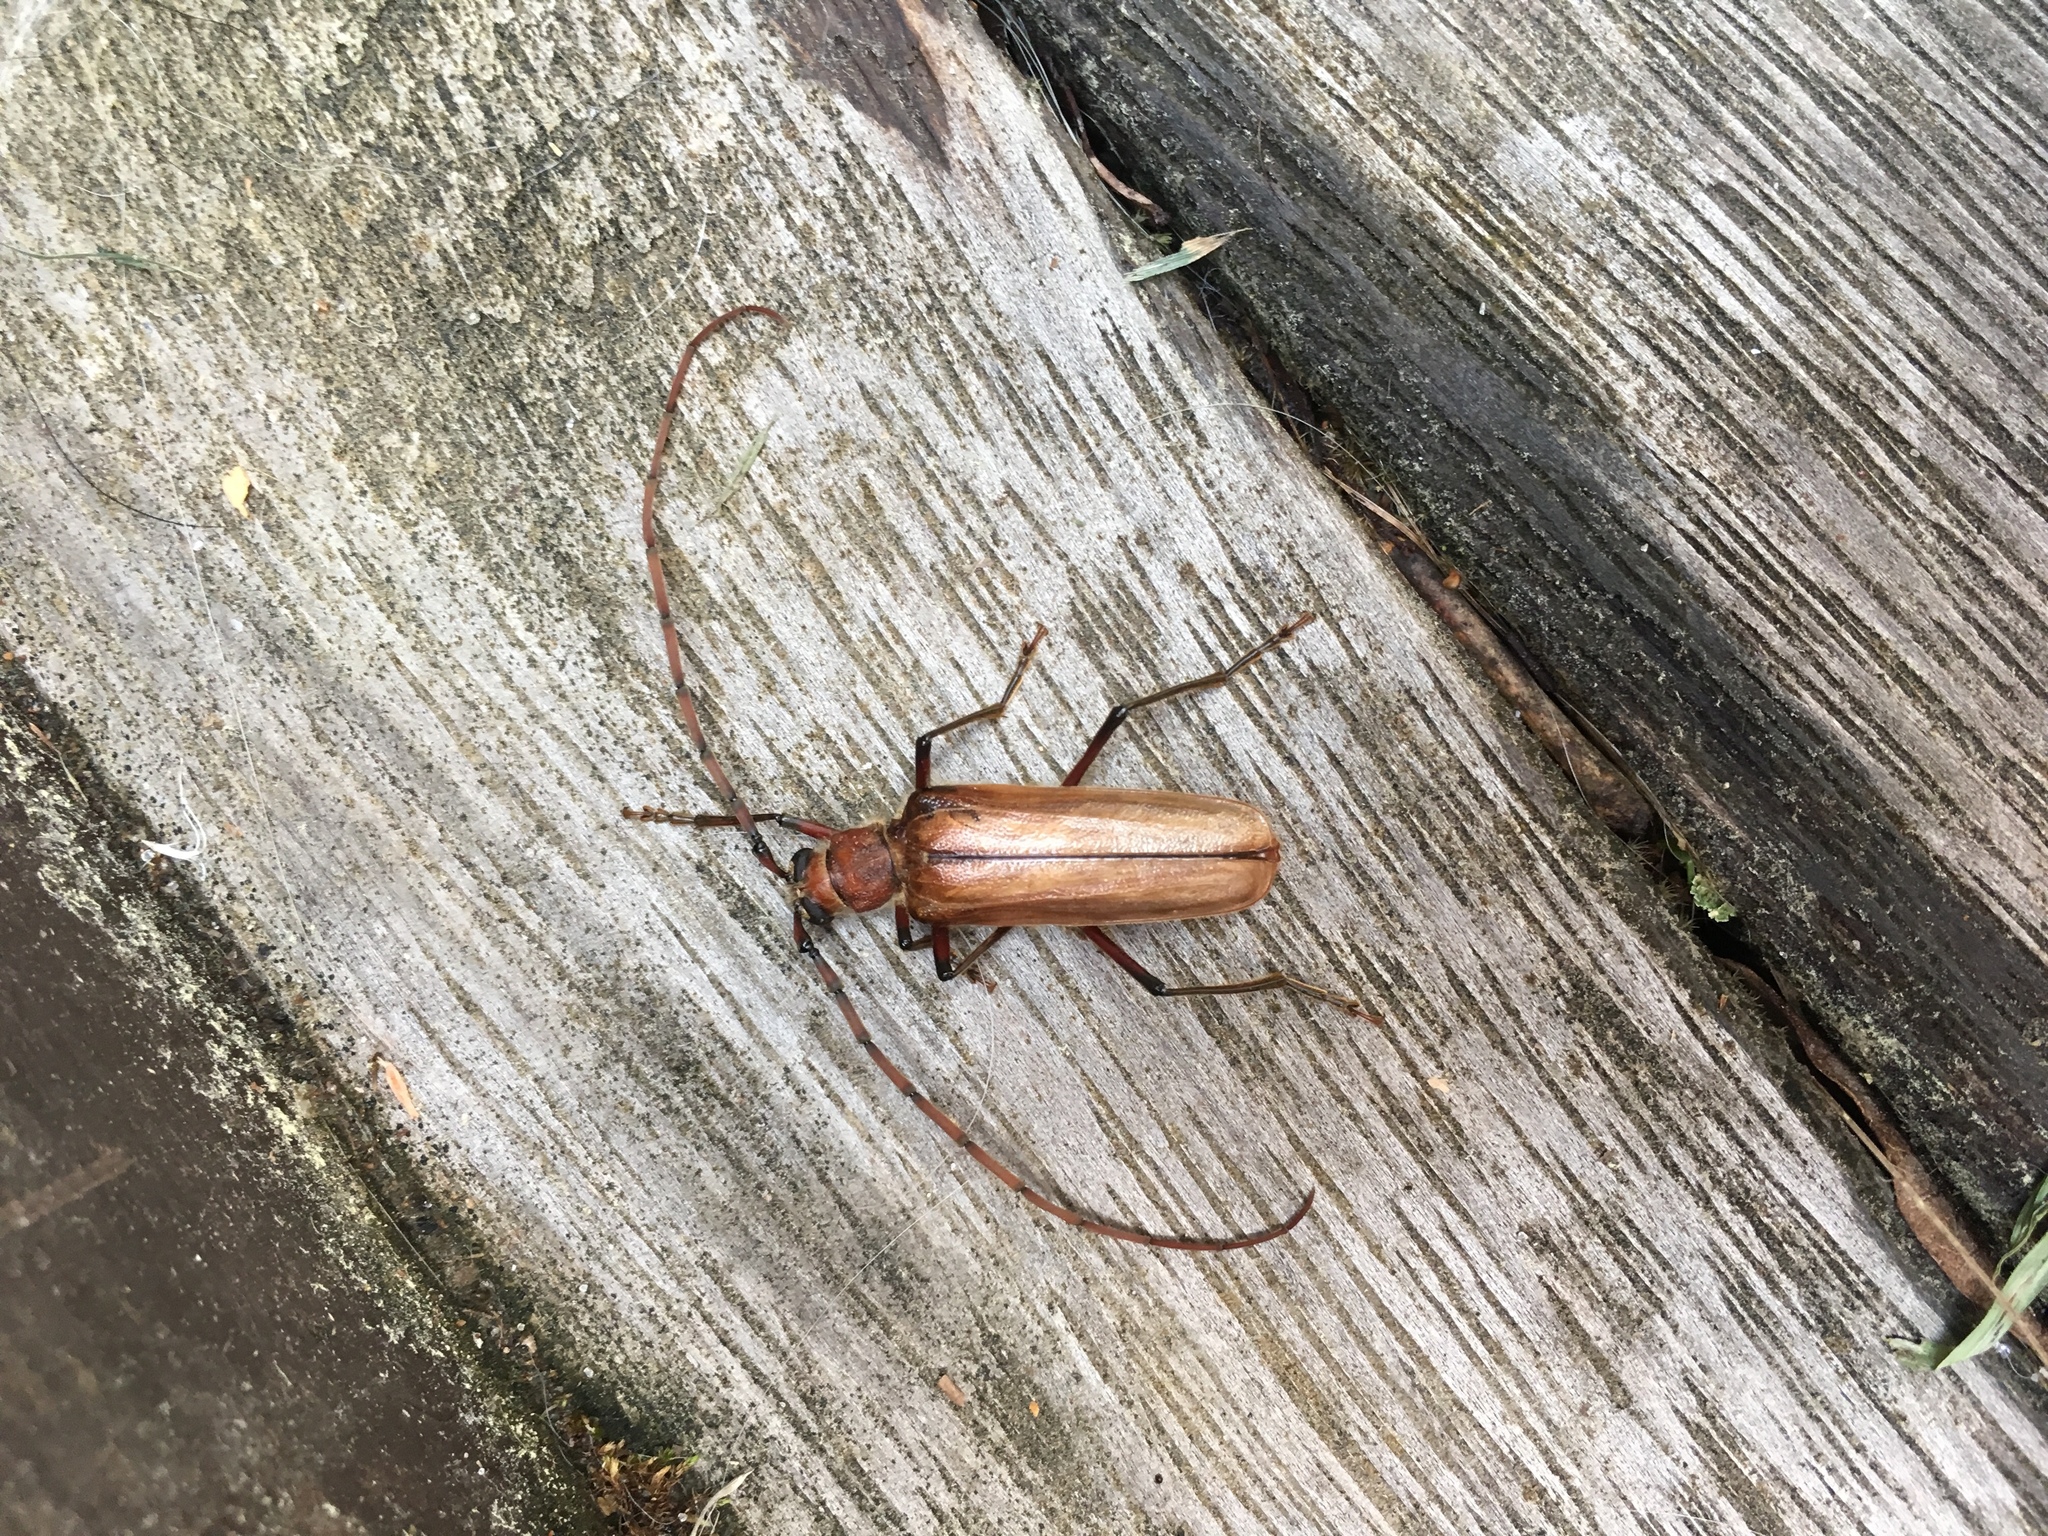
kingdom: Animalia
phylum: Arthropoda
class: Insecta
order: Coleoptera
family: Cerambycidae
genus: Ochrocydus
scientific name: Ochrocydus huttoni
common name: Kanuka longhorn
